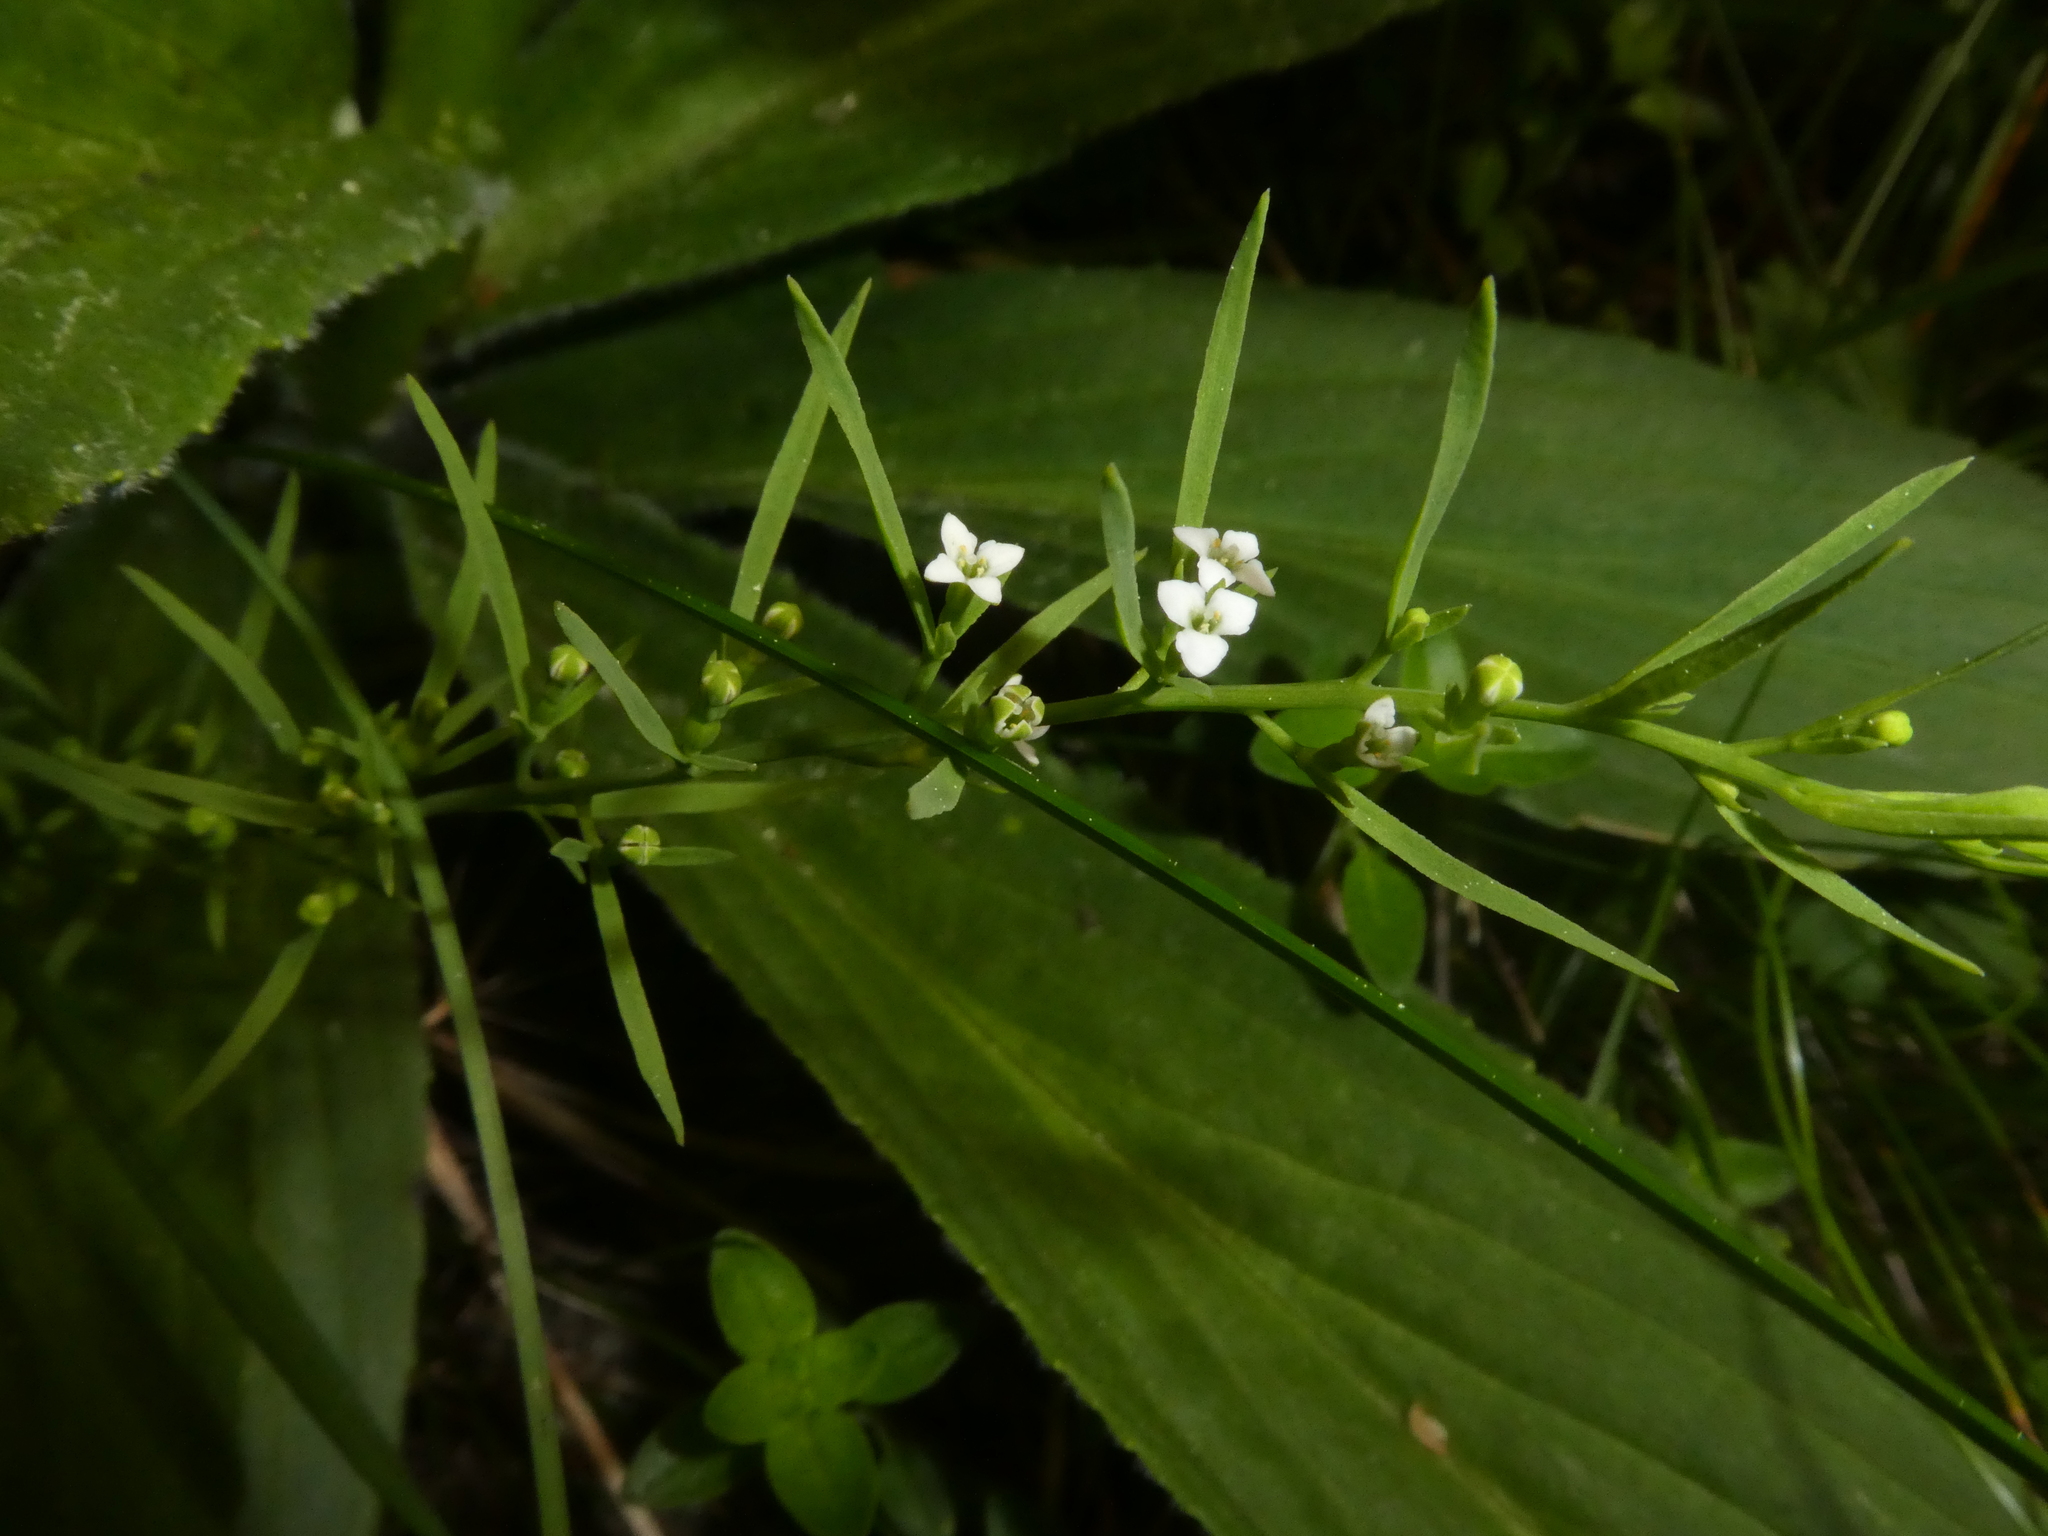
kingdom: Plantae
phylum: Tracheophyta
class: Magnoliopsida
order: Santalales
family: Thesiaceae
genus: Thesium
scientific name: Thesium alpinum
